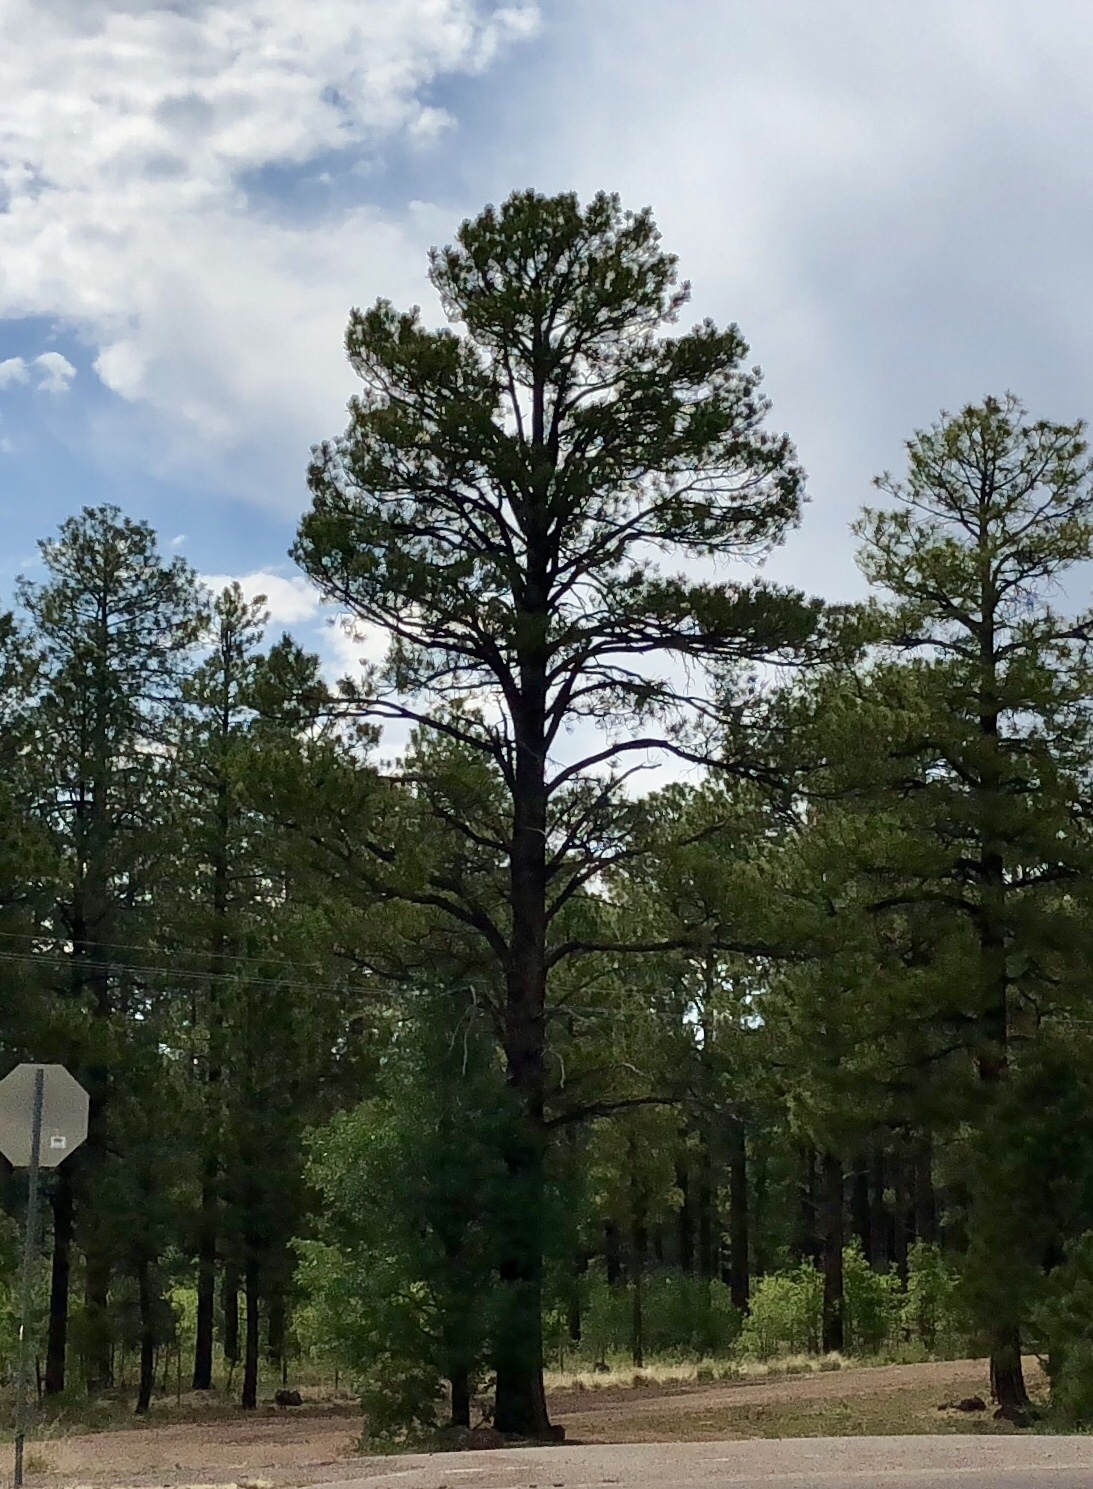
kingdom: Plantae
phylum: Tracheophyta
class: Pinopsida
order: Pinales
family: Pinaceae
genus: Pinus
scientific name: Pinus ponderosa
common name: Western yellow-pine
